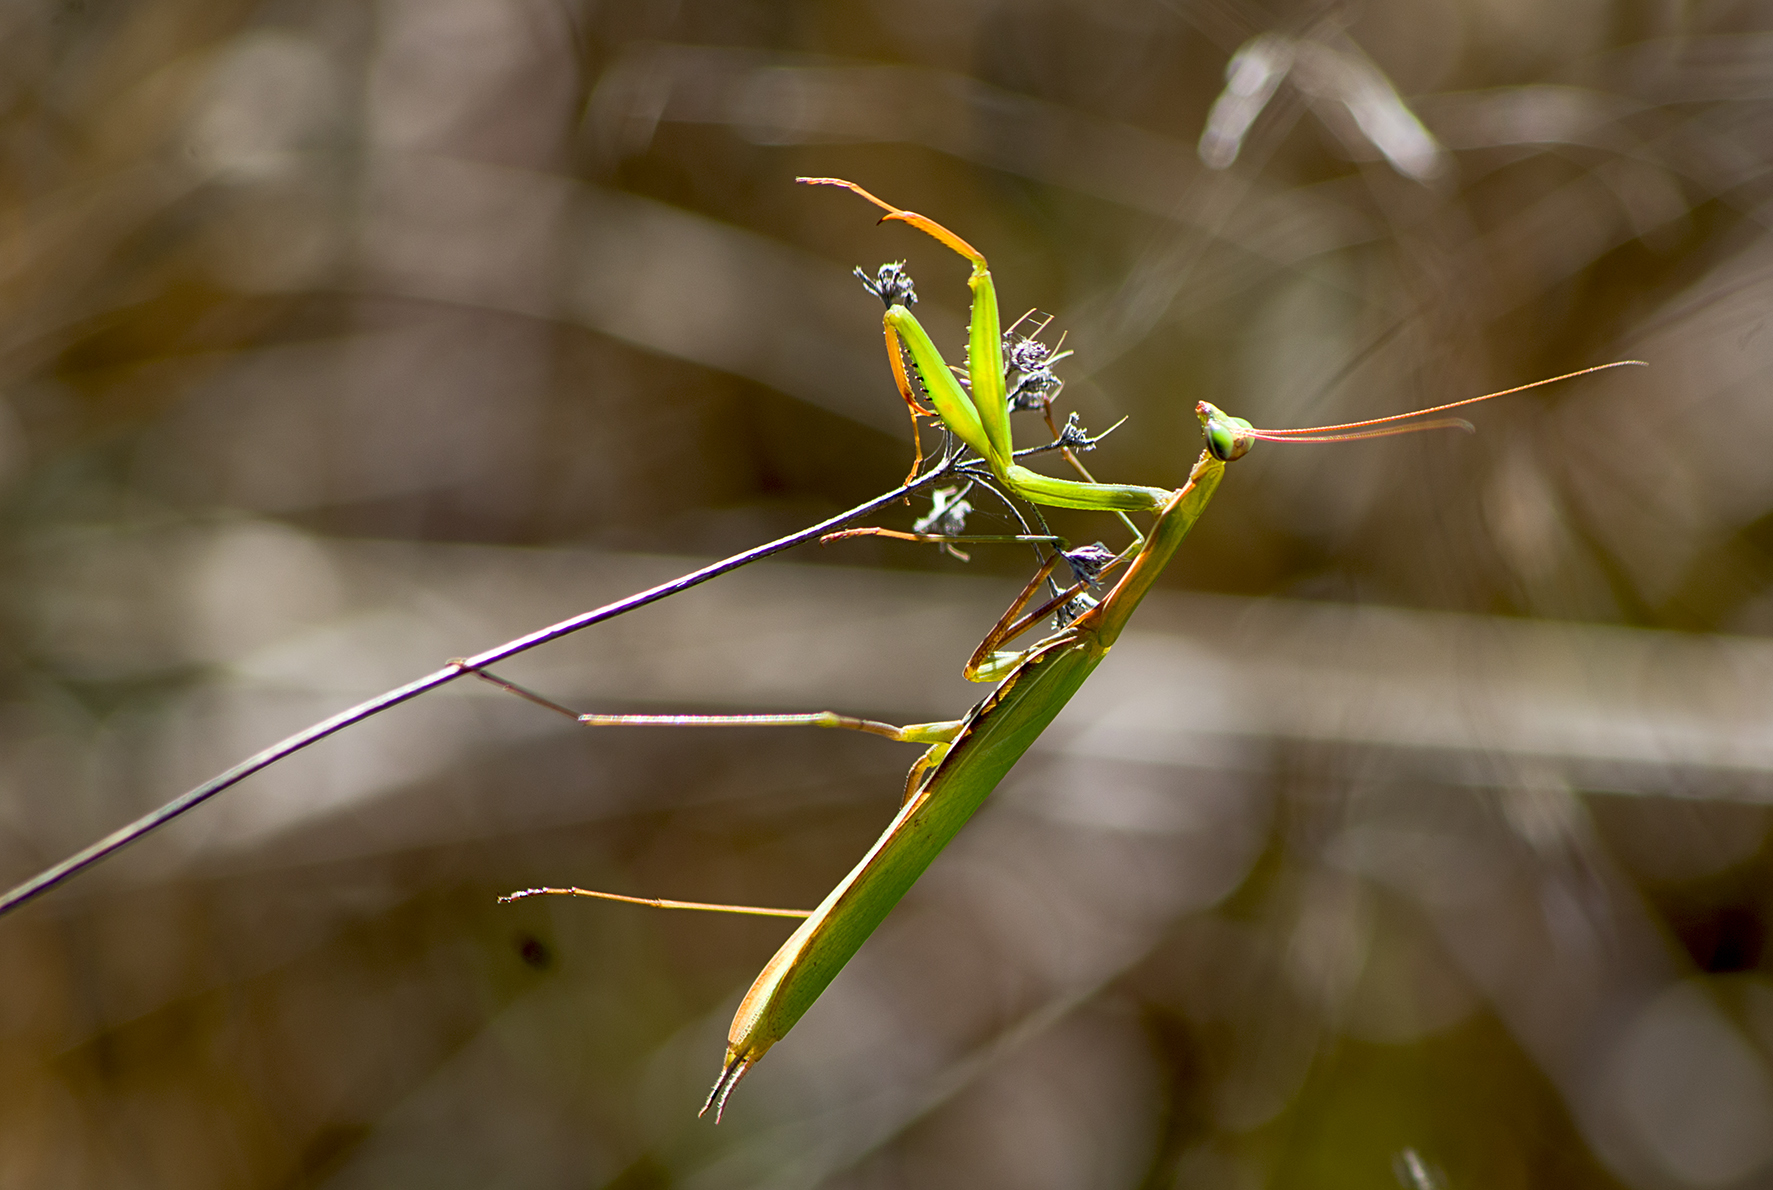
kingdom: Animalia
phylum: Arthropoda
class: Insecta
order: Mantodea
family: Mantidae
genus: Mantis
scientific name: Mantis religiosa
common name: Praying mantis
